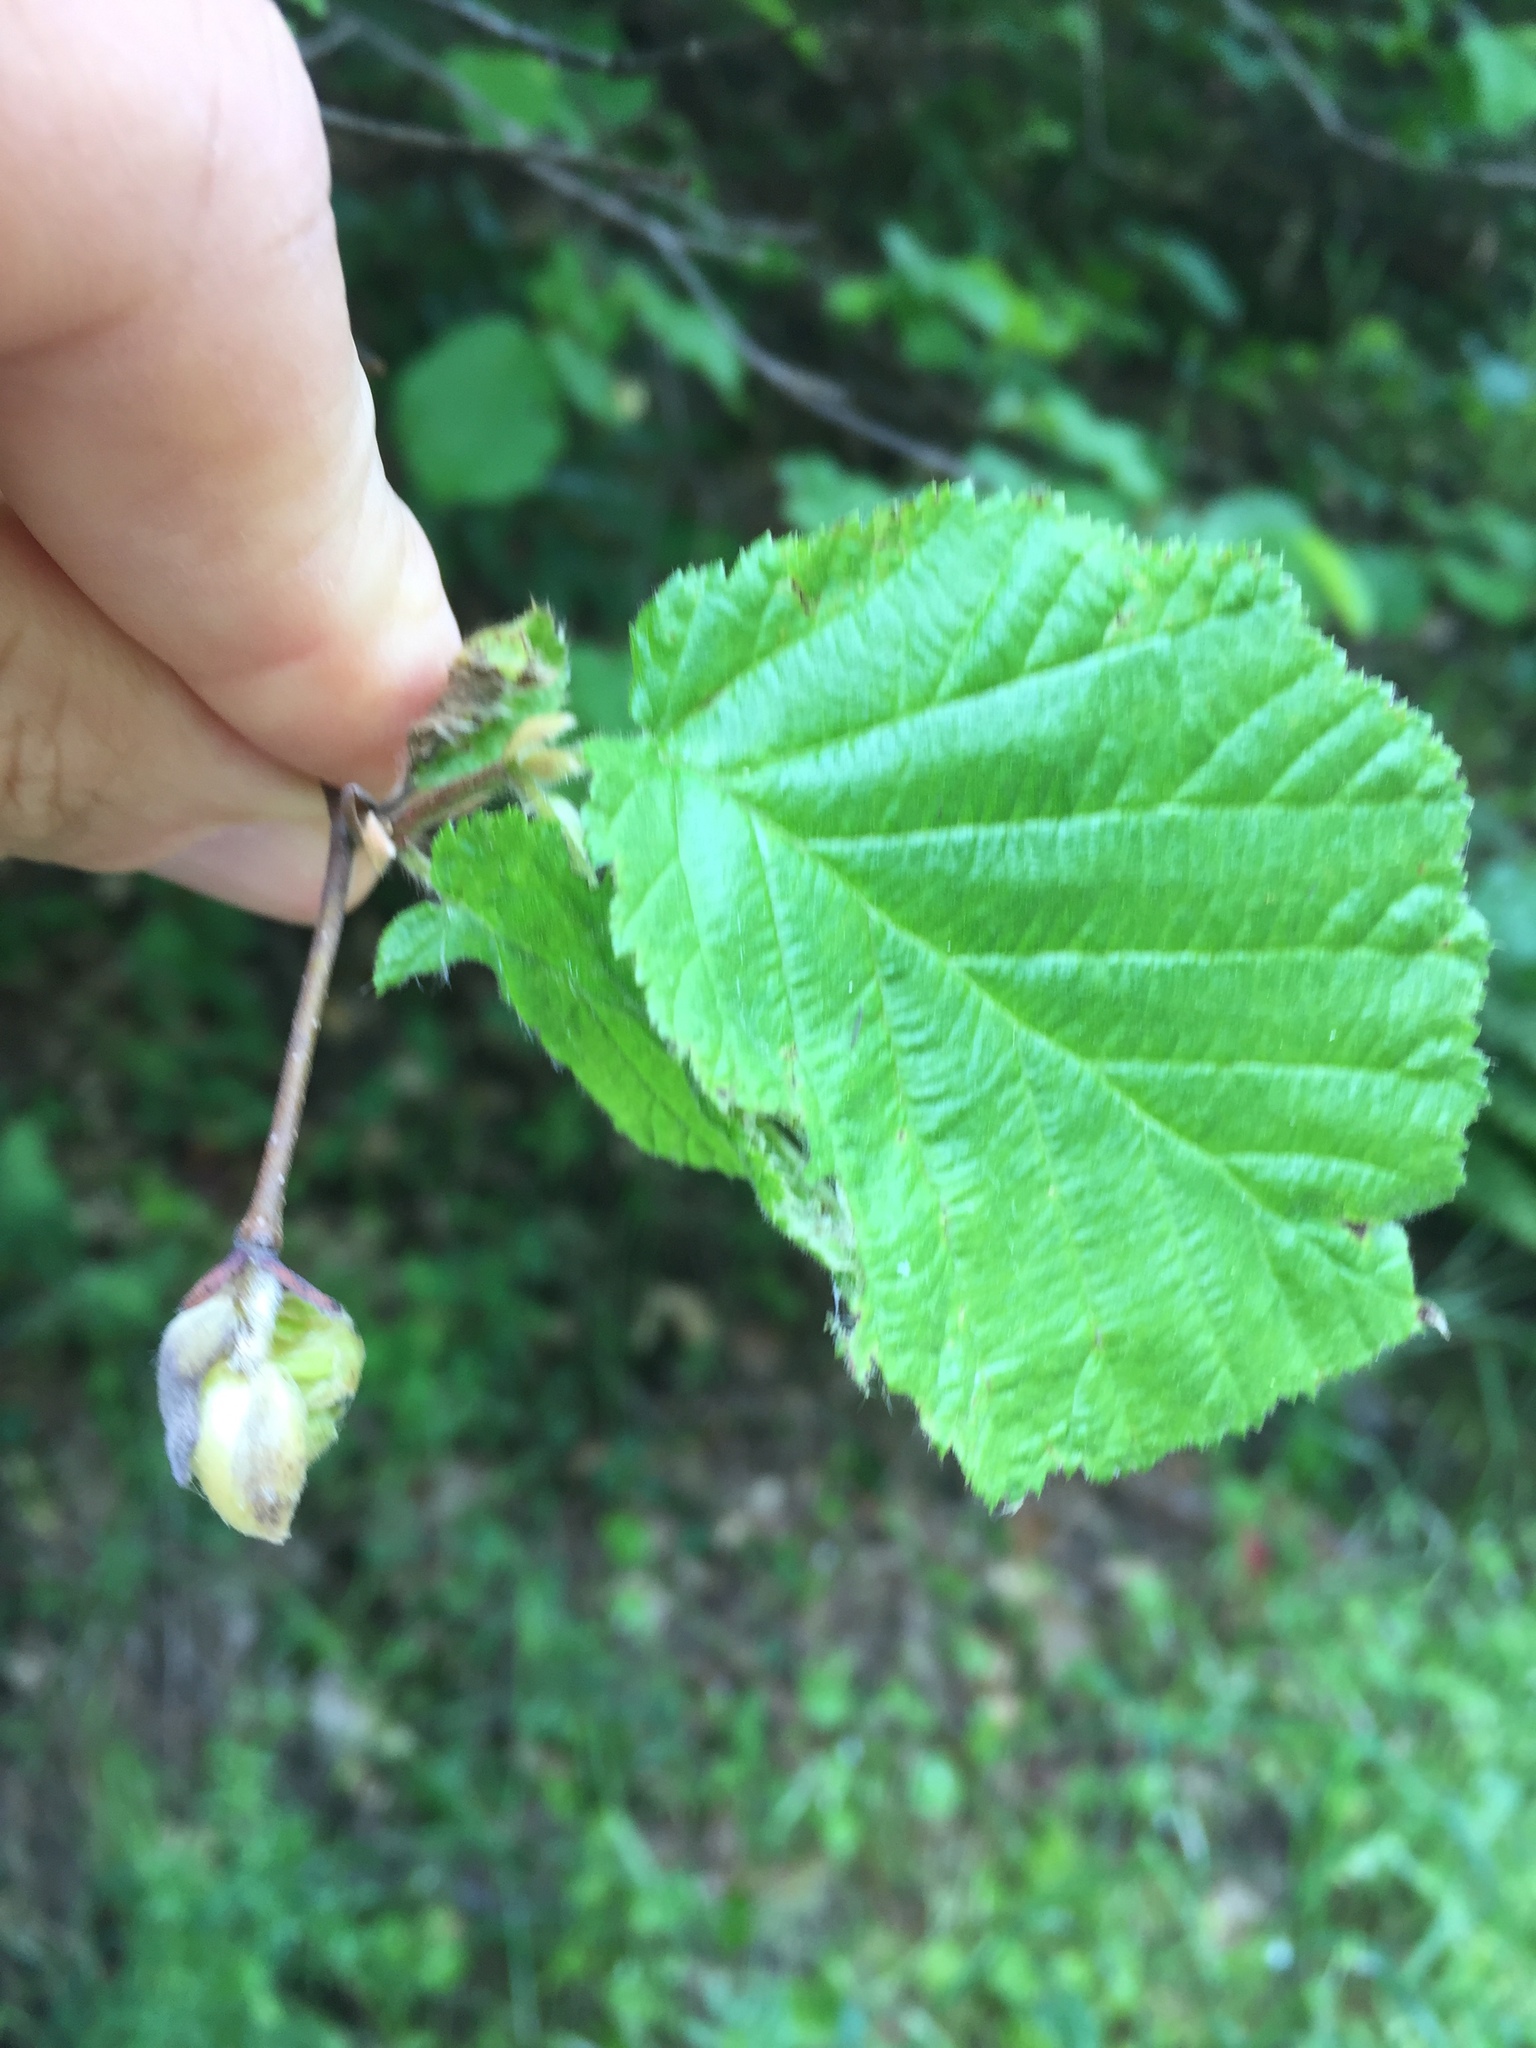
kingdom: Plantae
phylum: Tracheophyta
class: Magnoliopsida
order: Fagales
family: Betulaceae
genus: Corylus
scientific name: Corylus cornuta
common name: Beaked hazel
